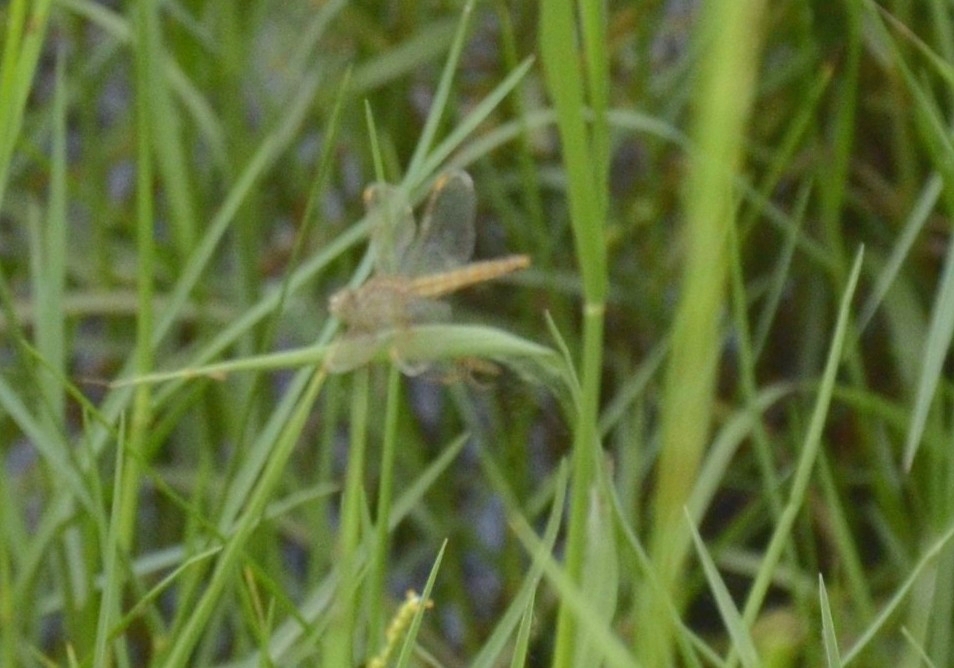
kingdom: Animalia
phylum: Arthropoda
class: Insecta
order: Odonata
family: Libellulidae
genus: Brachythemis
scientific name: Brachythemis contaminata
